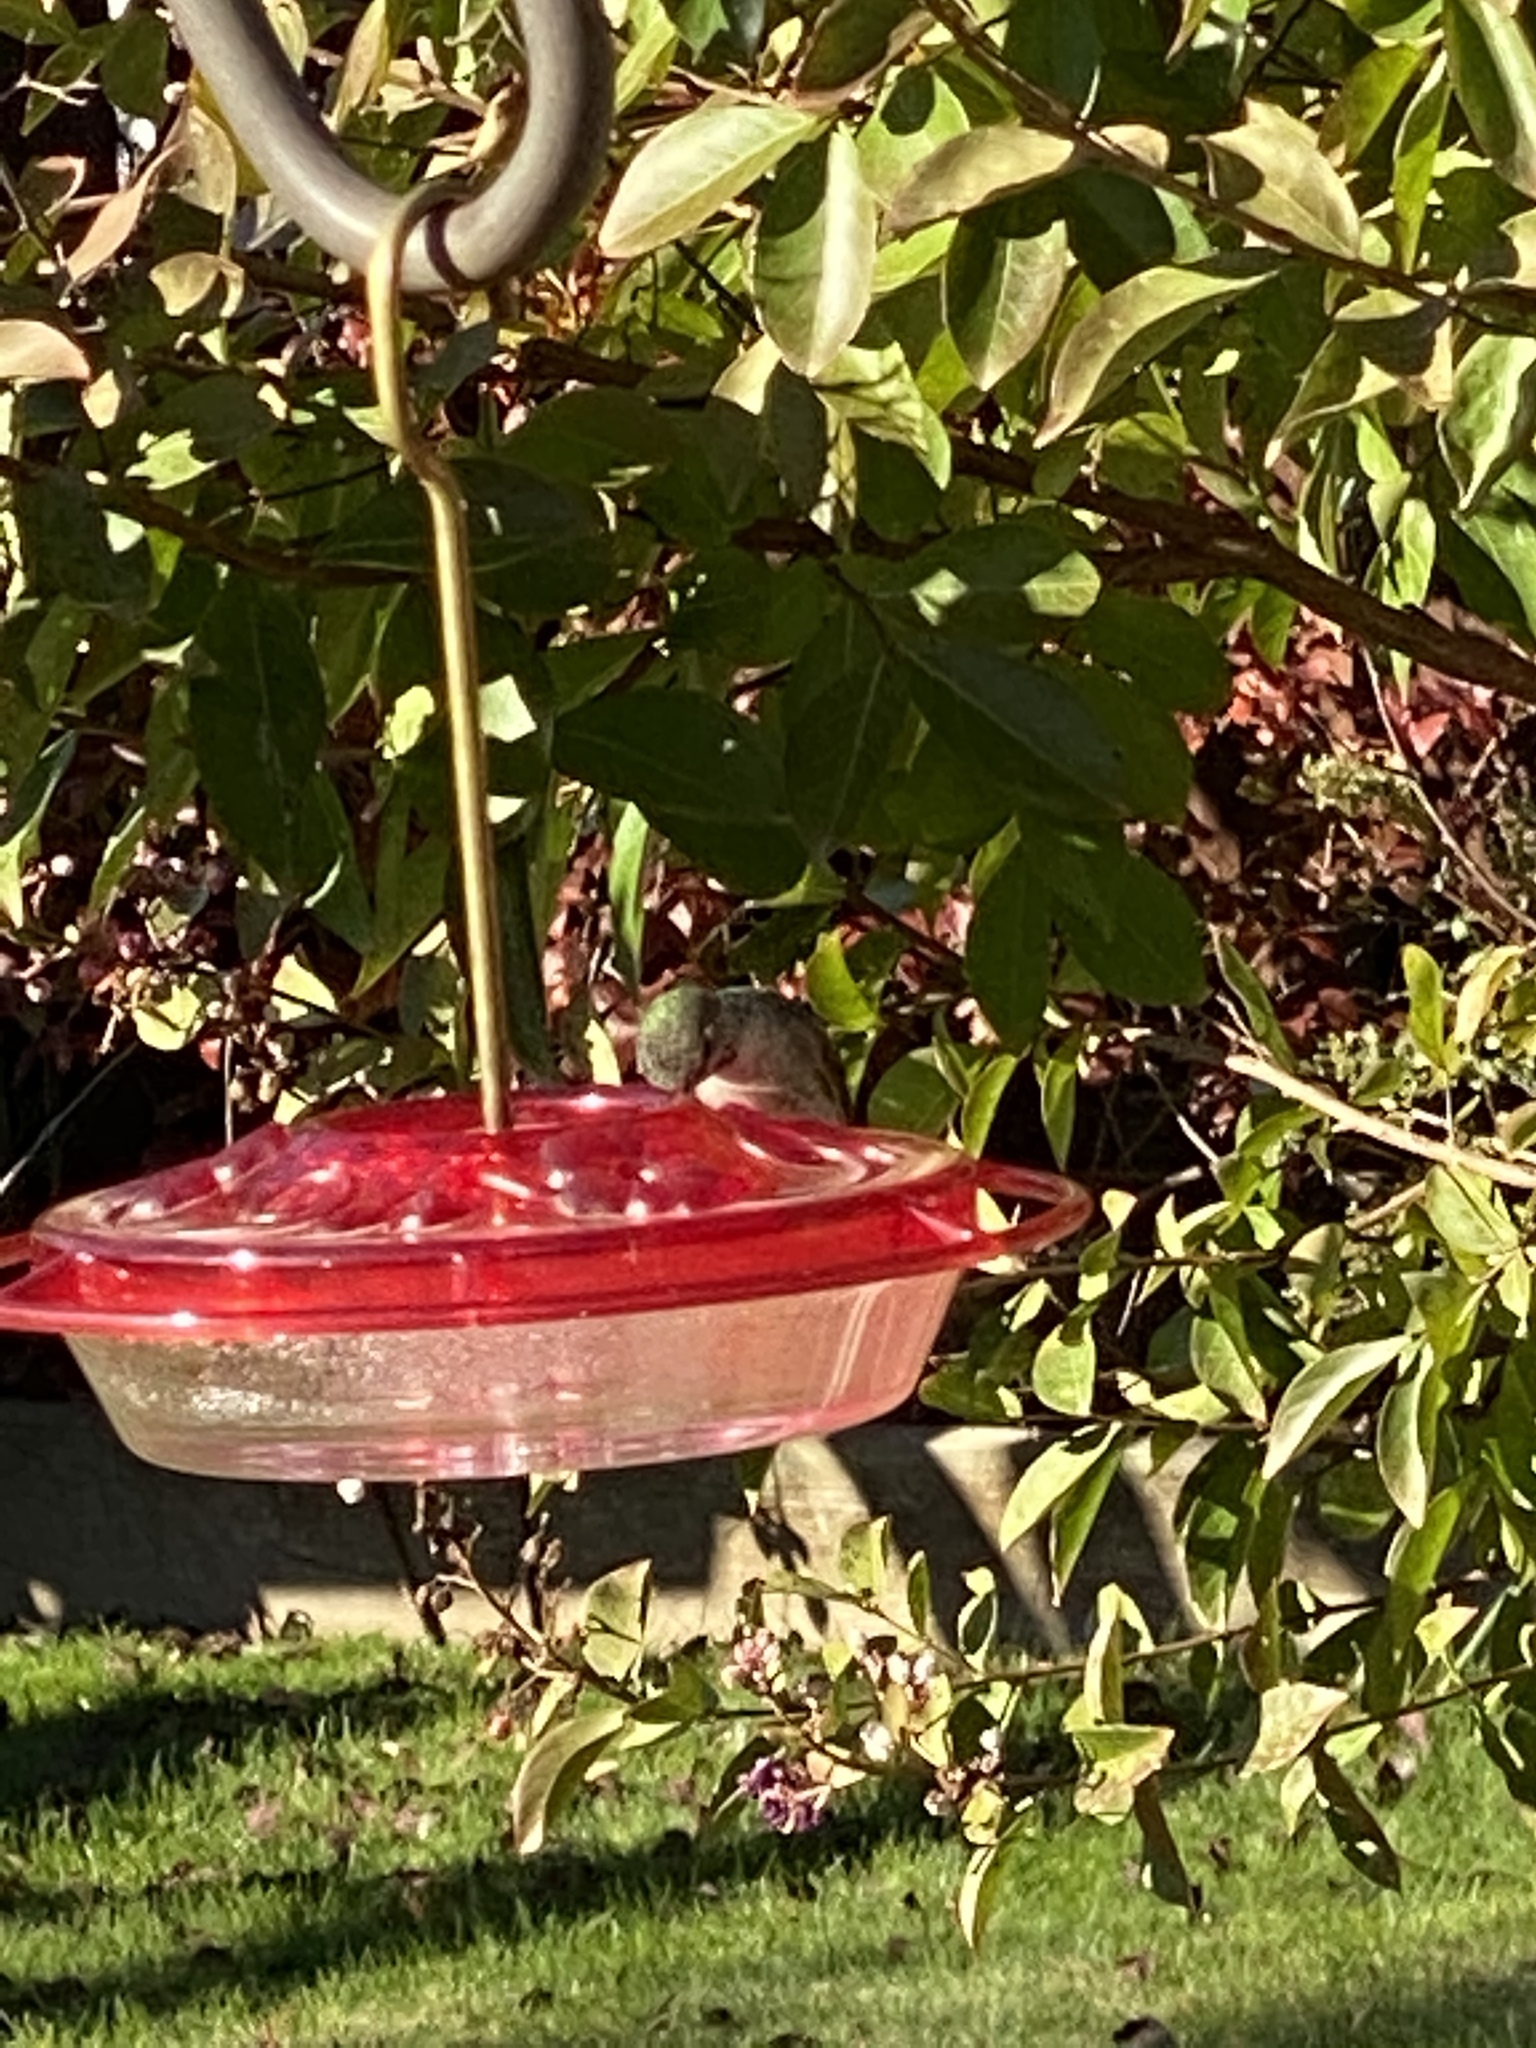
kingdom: Animalia
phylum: Chordata
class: Aves
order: Apodiformes
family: Trochilidae
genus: Calypte
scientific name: Calypte anna
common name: Anna's hummingbird
